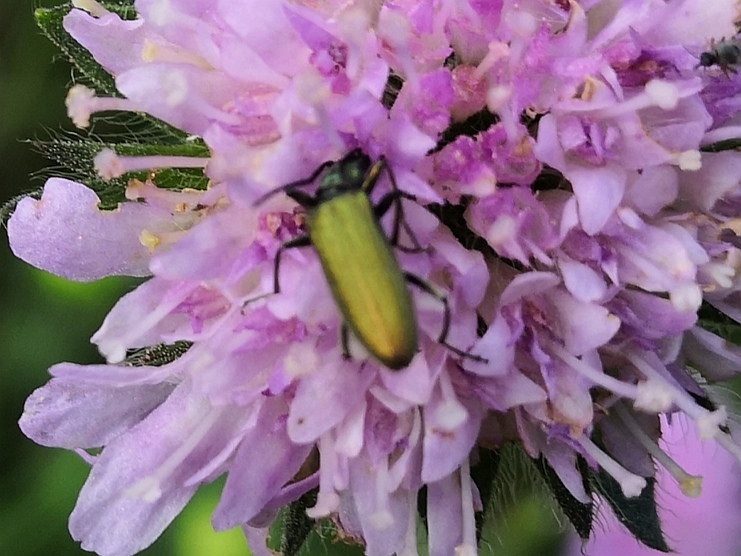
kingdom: Animalia
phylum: Arthropoda
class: Insecta
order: Coleoptera
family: Oedemeridae
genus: Chrysanthia
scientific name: Chrysanthia viridissima
